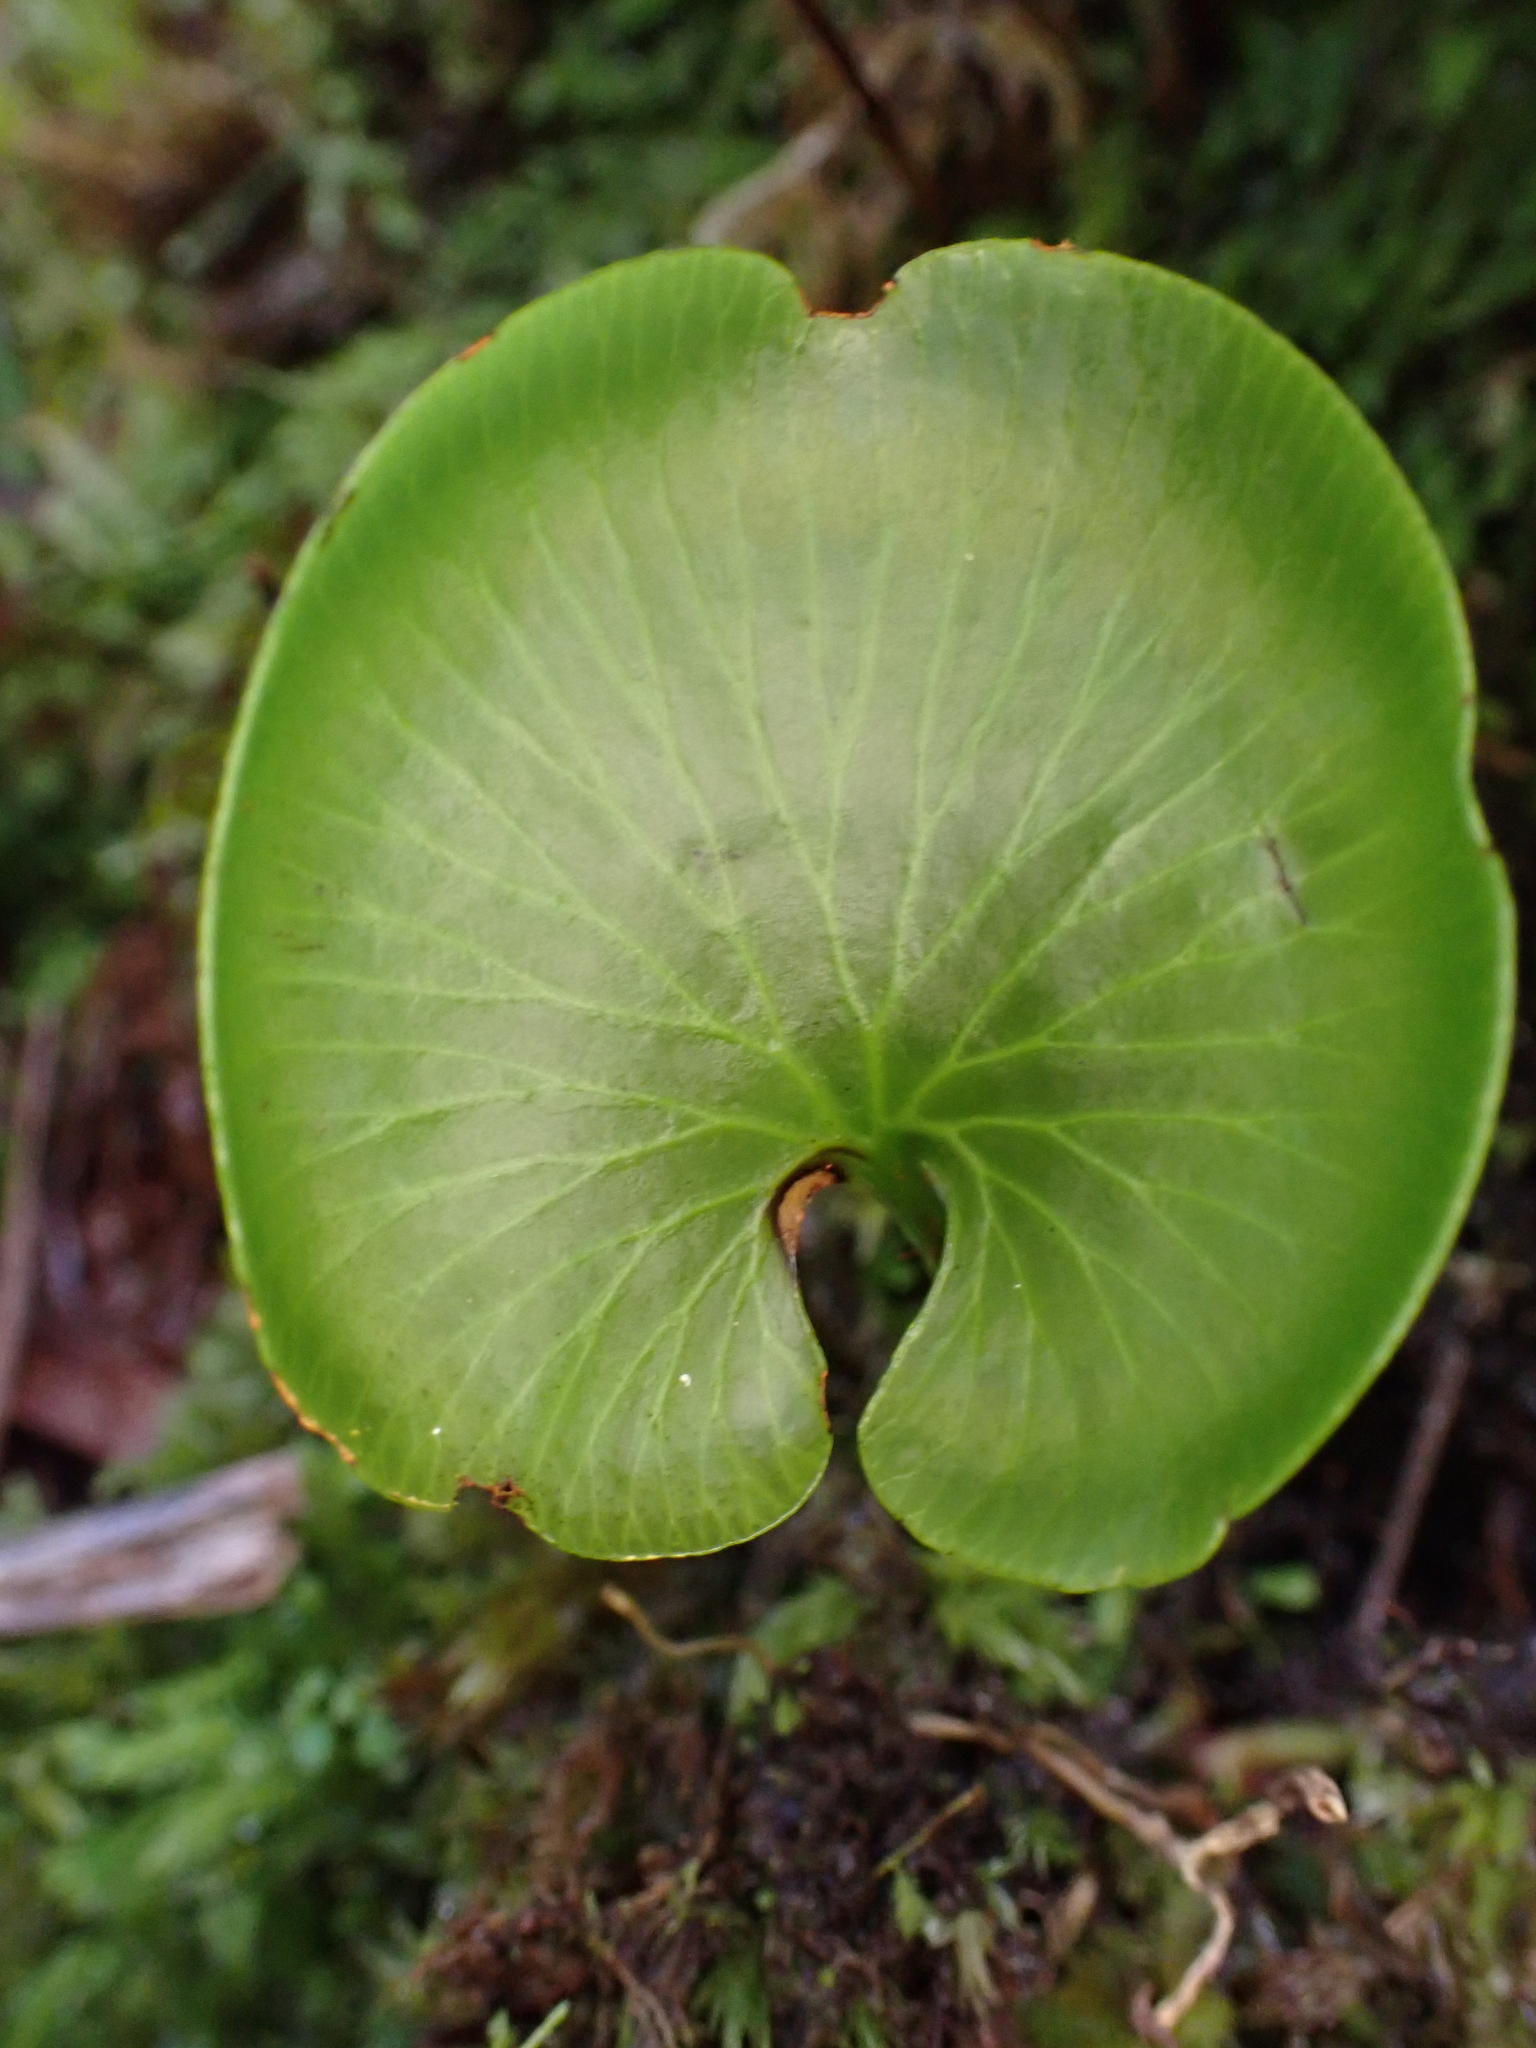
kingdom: Plantae
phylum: Tracheophyta
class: Polypodiopsida
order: Hymenophyllales
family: Hymenophyllaceae
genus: Hymenophyllum
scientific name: Hymenophyllum nephrophyllum
